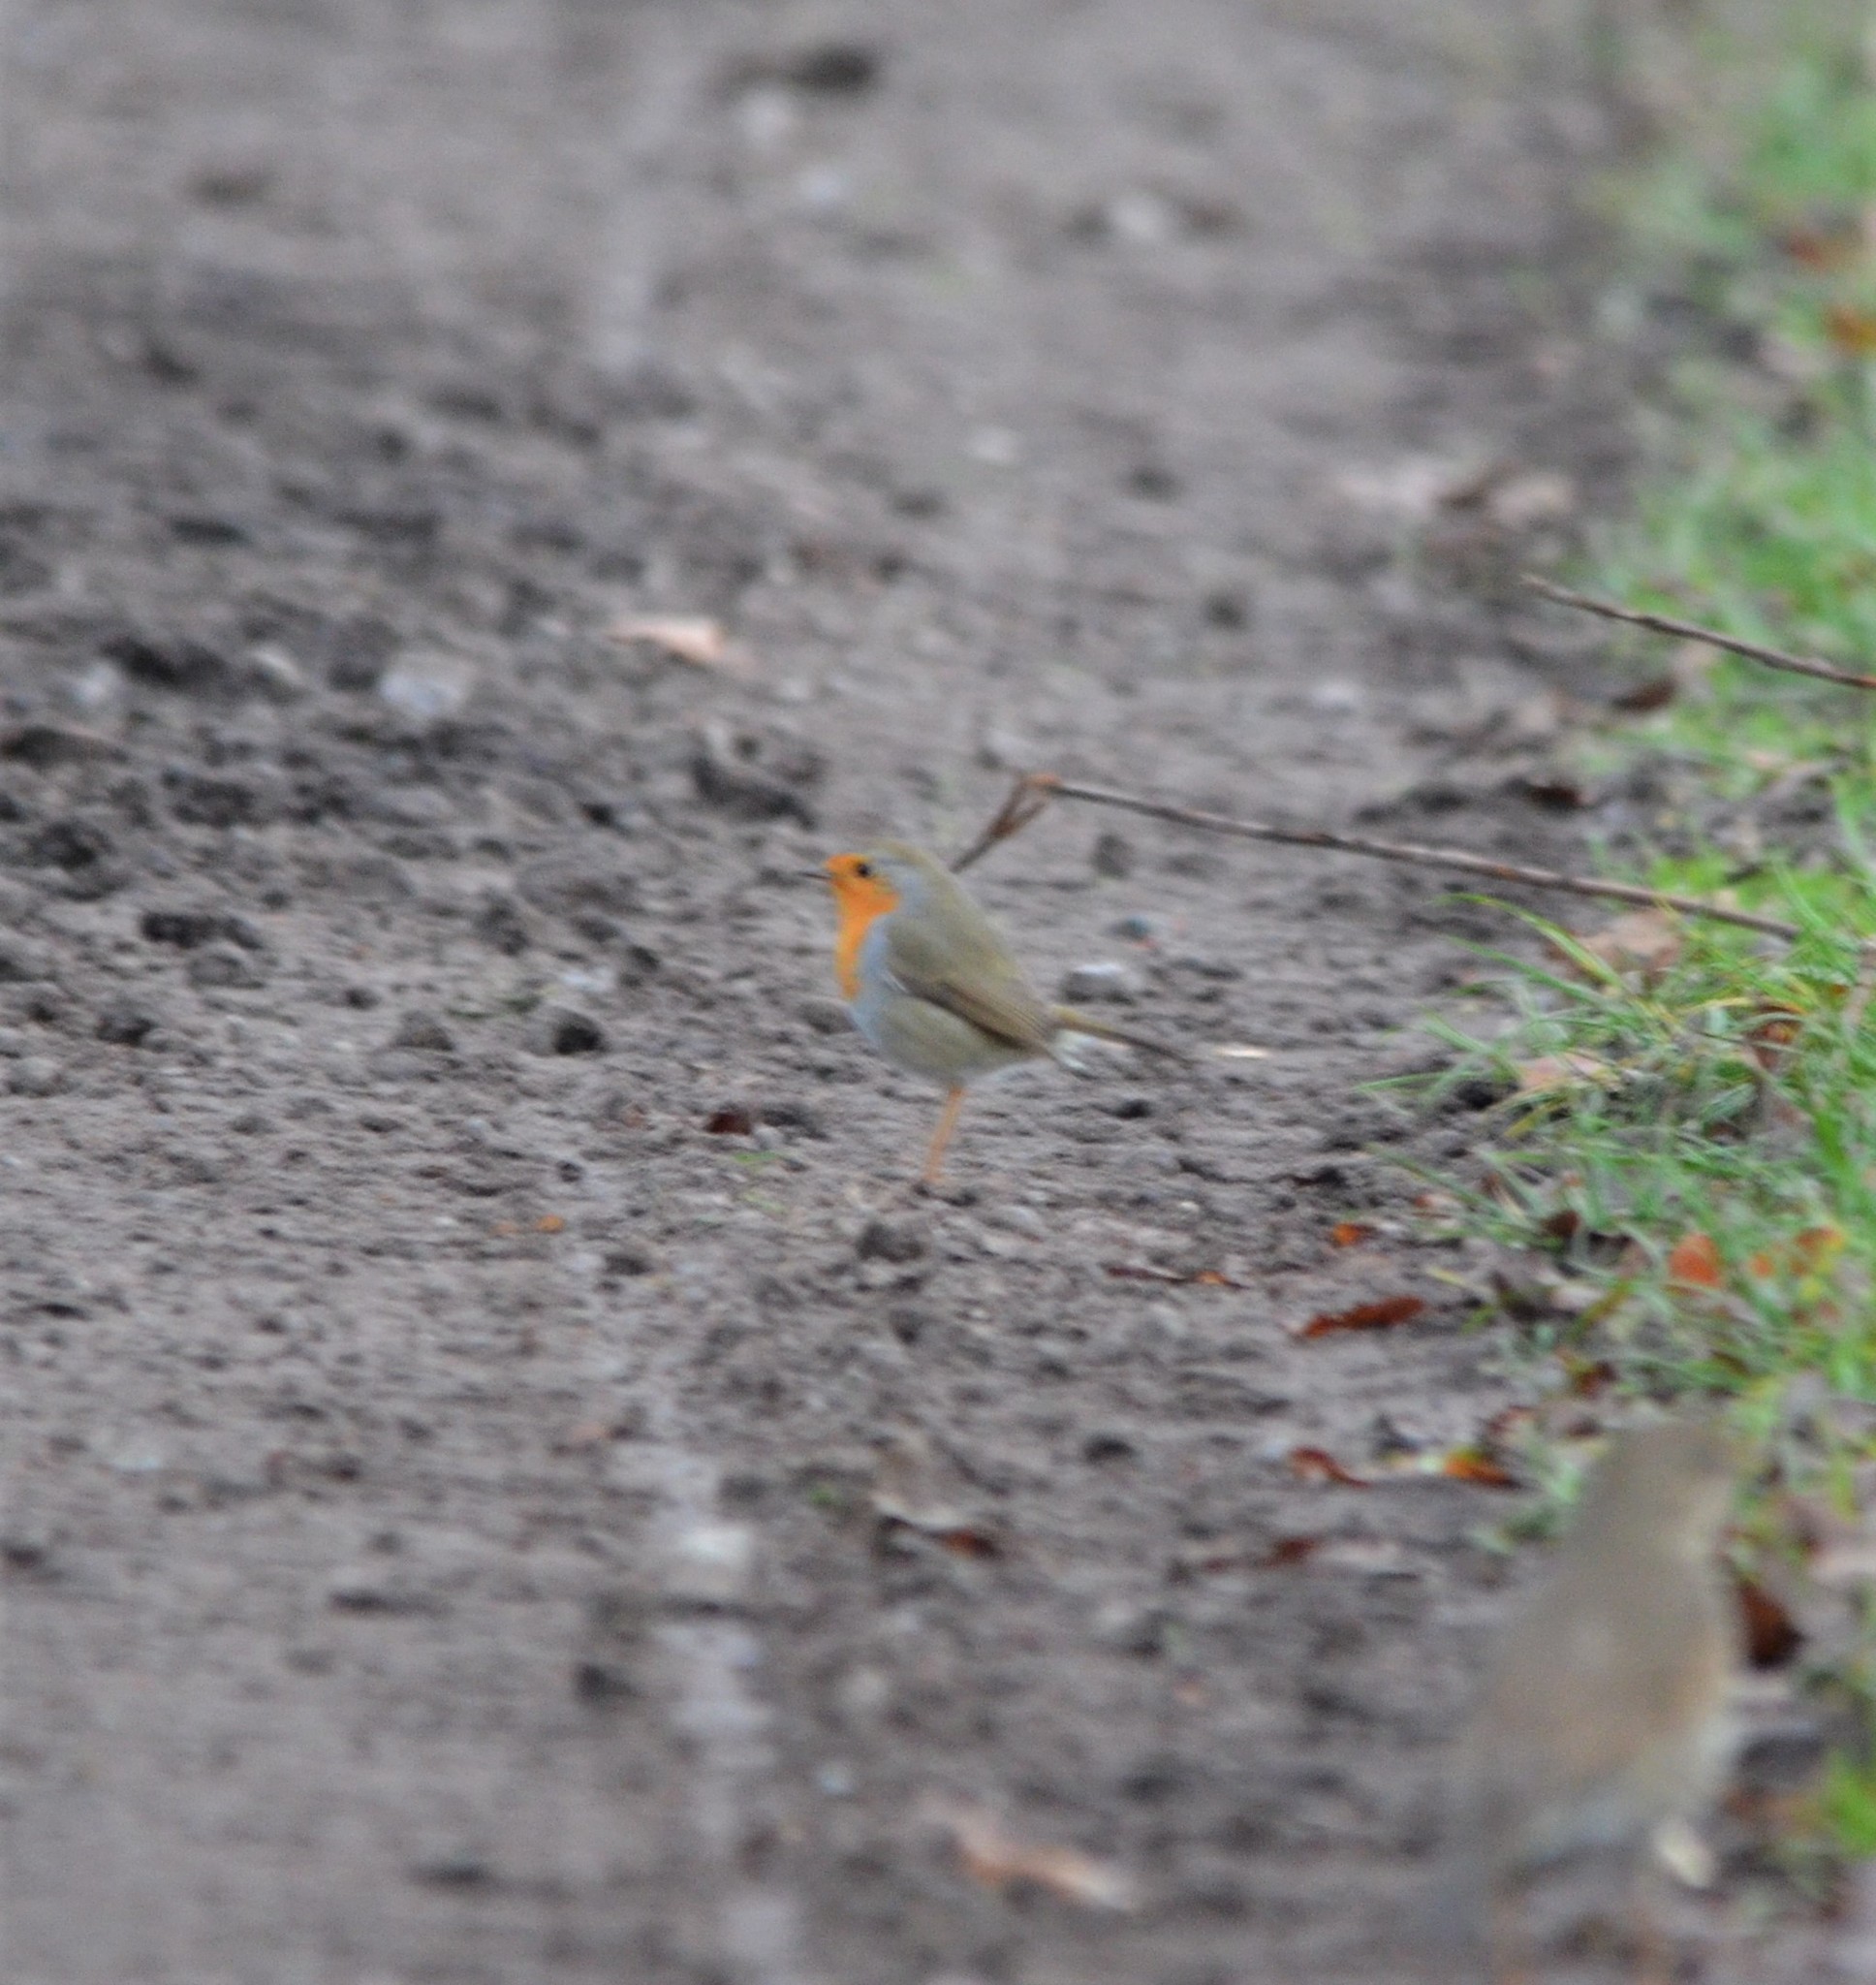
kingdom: Animalia
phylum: Chordata
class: Aves
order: Passeriformes
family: Muscicapidae
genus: Erithacus
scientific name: Erithacus rubecula
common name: European robin
